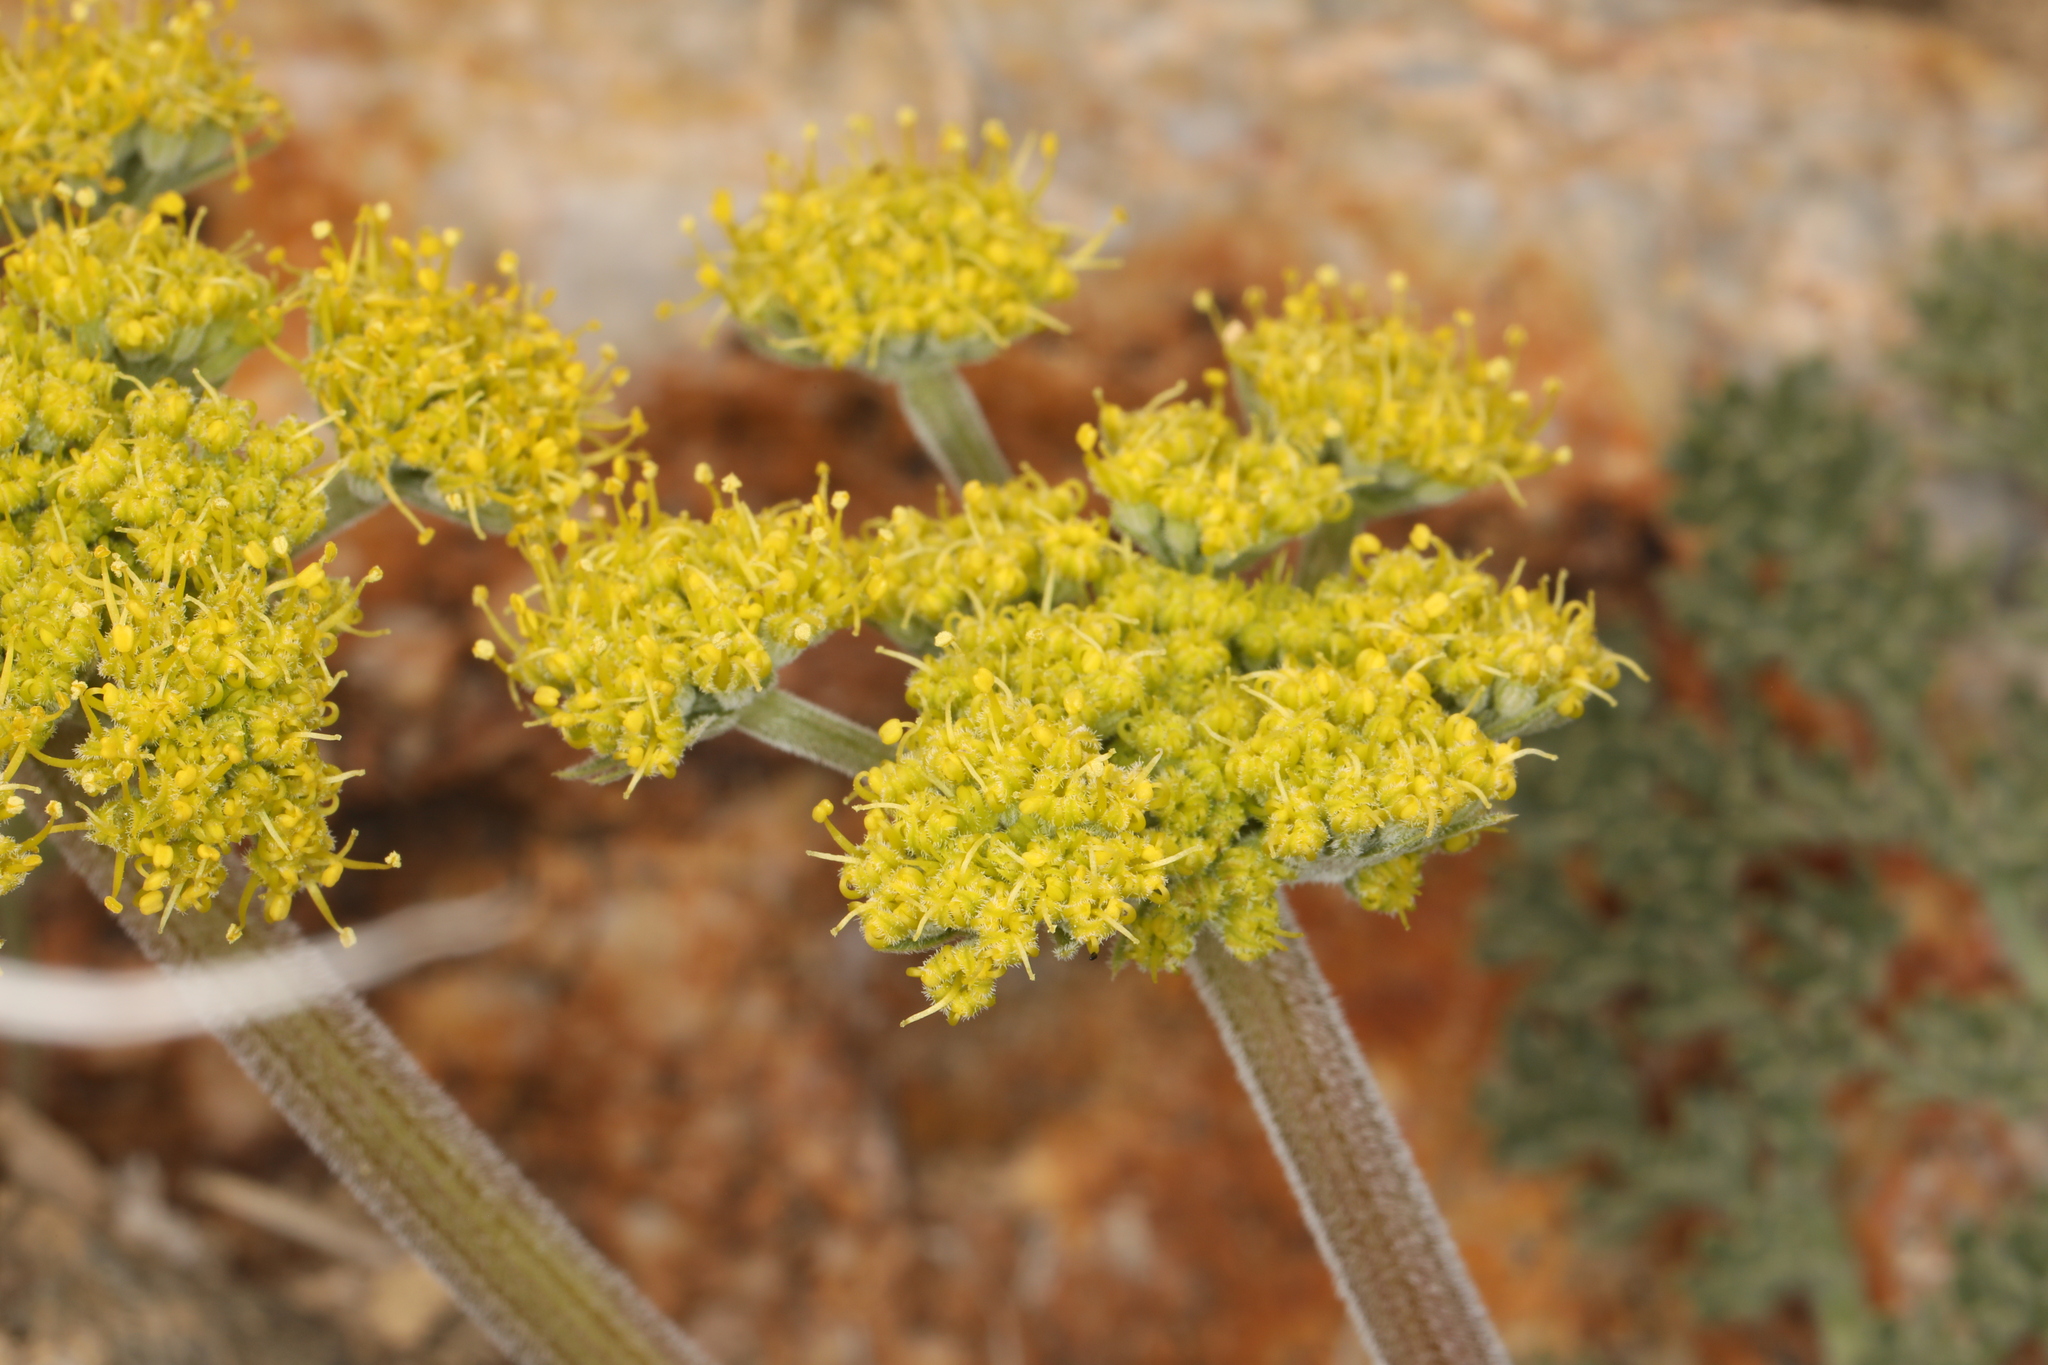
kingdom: Plantae
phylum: Tracheophyta
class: Magnoliopsida
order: Apiales
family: Apiaceae
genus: Lomatium
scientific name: Lomatium foeniculaceum
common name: Desert-parsley
